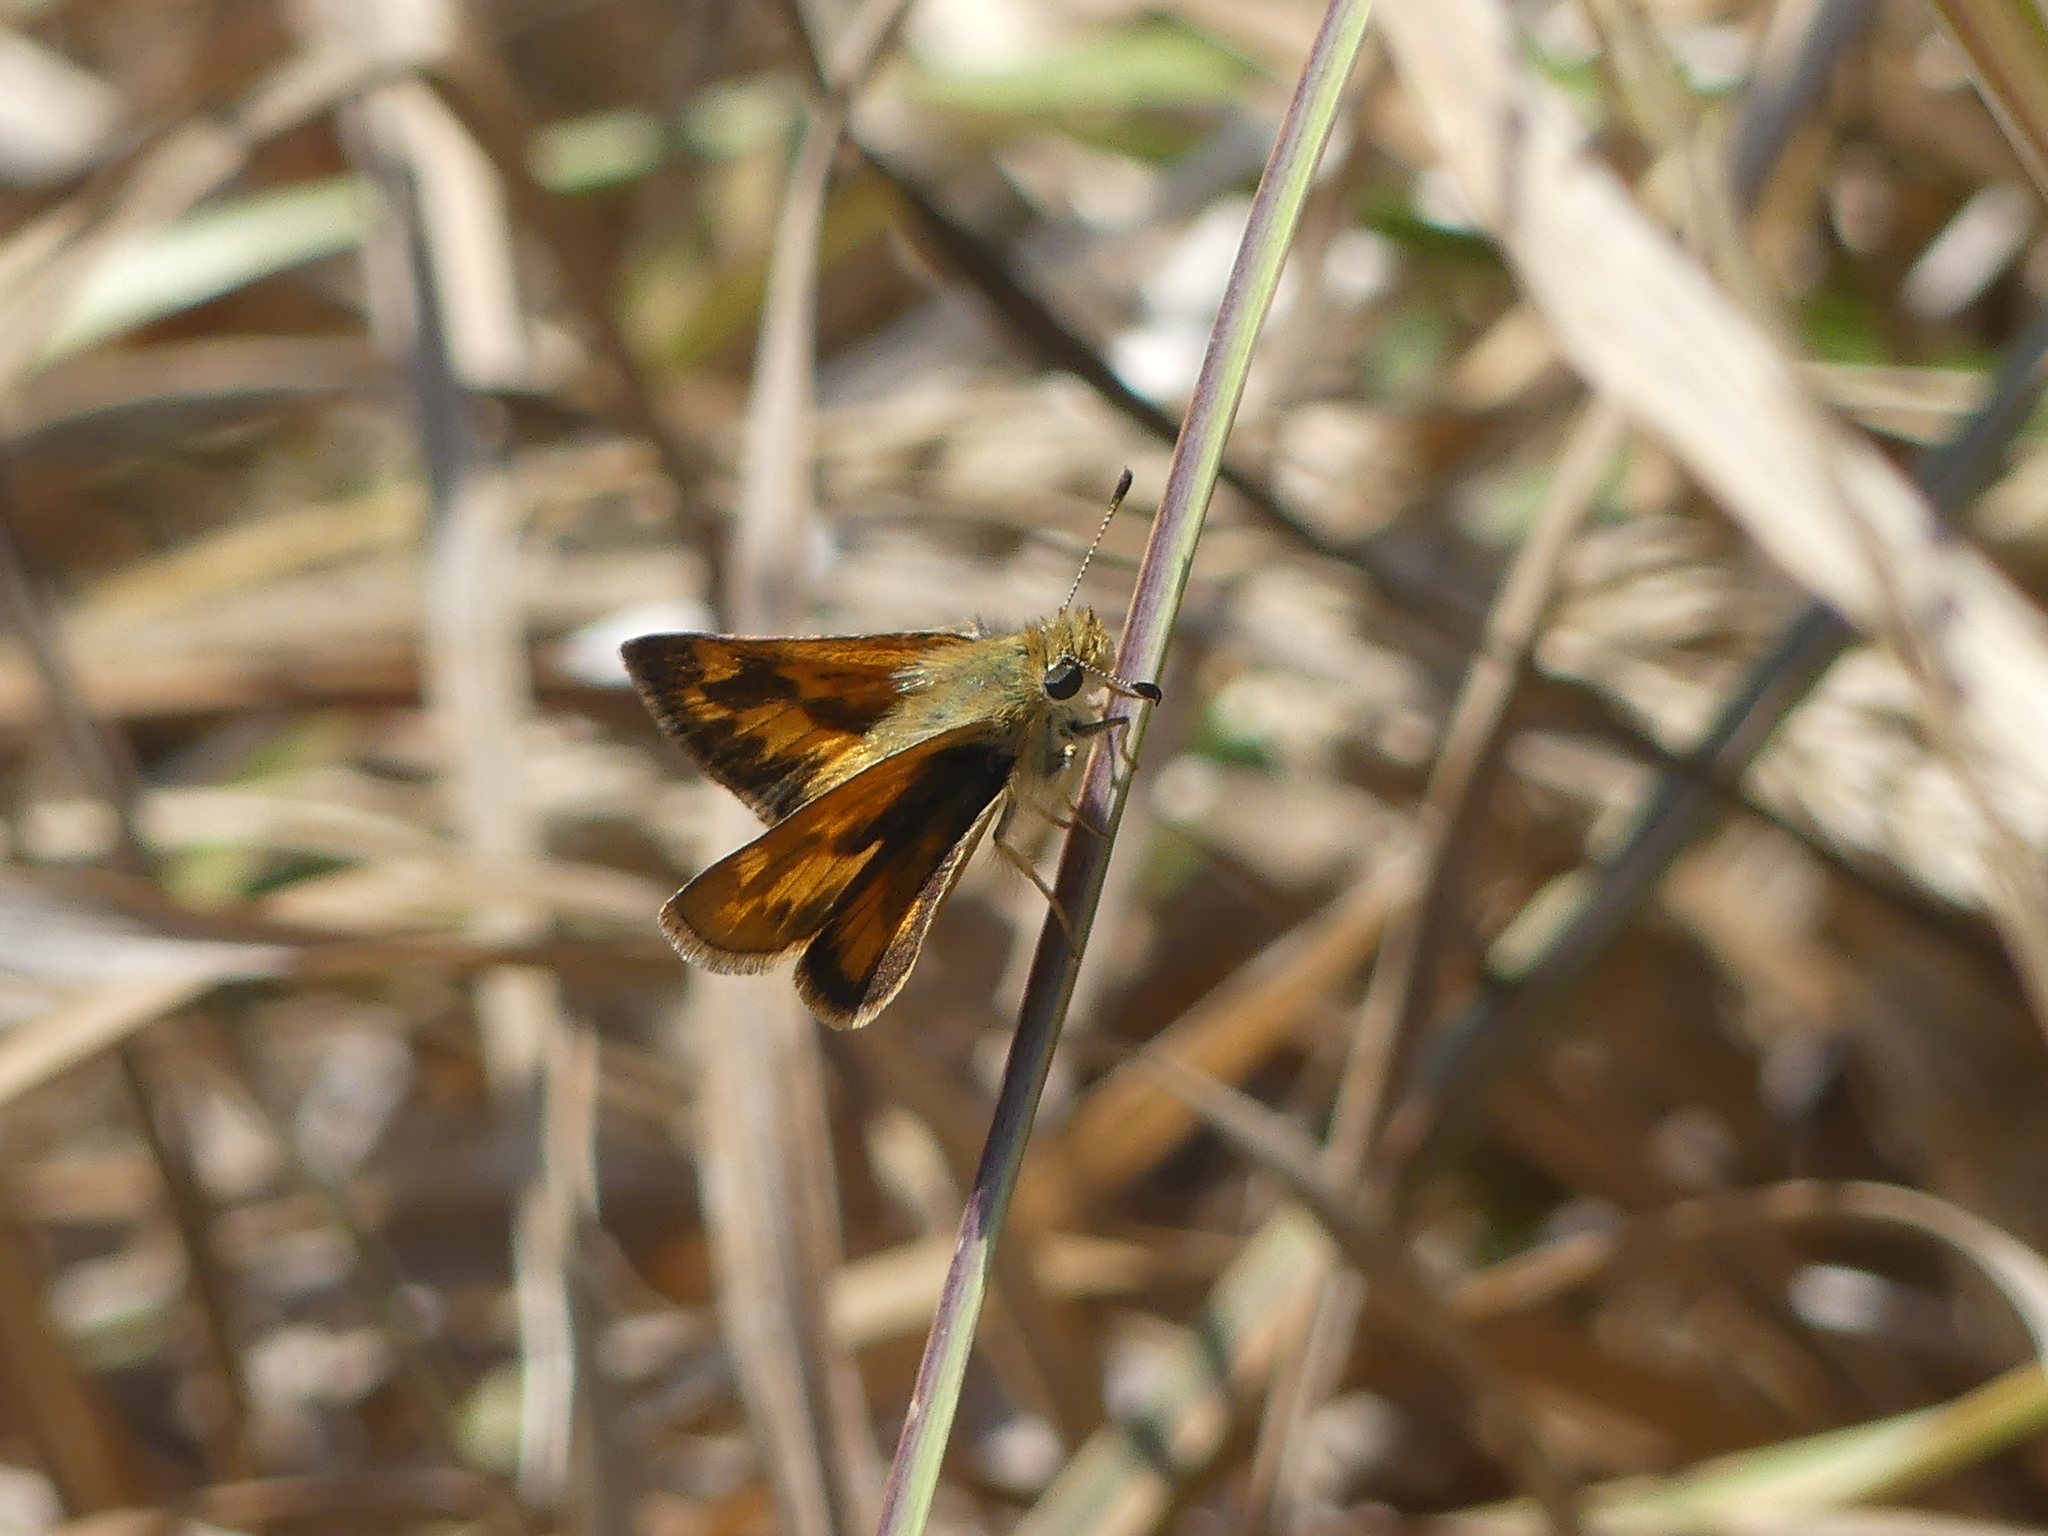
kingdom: Animalia
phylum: Arthropoda
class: Insecta
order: Lepidoptera
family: Hesperiidae
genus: Ochlodes
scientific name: Ochlodes sylvanoides
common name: Woodland skipper
